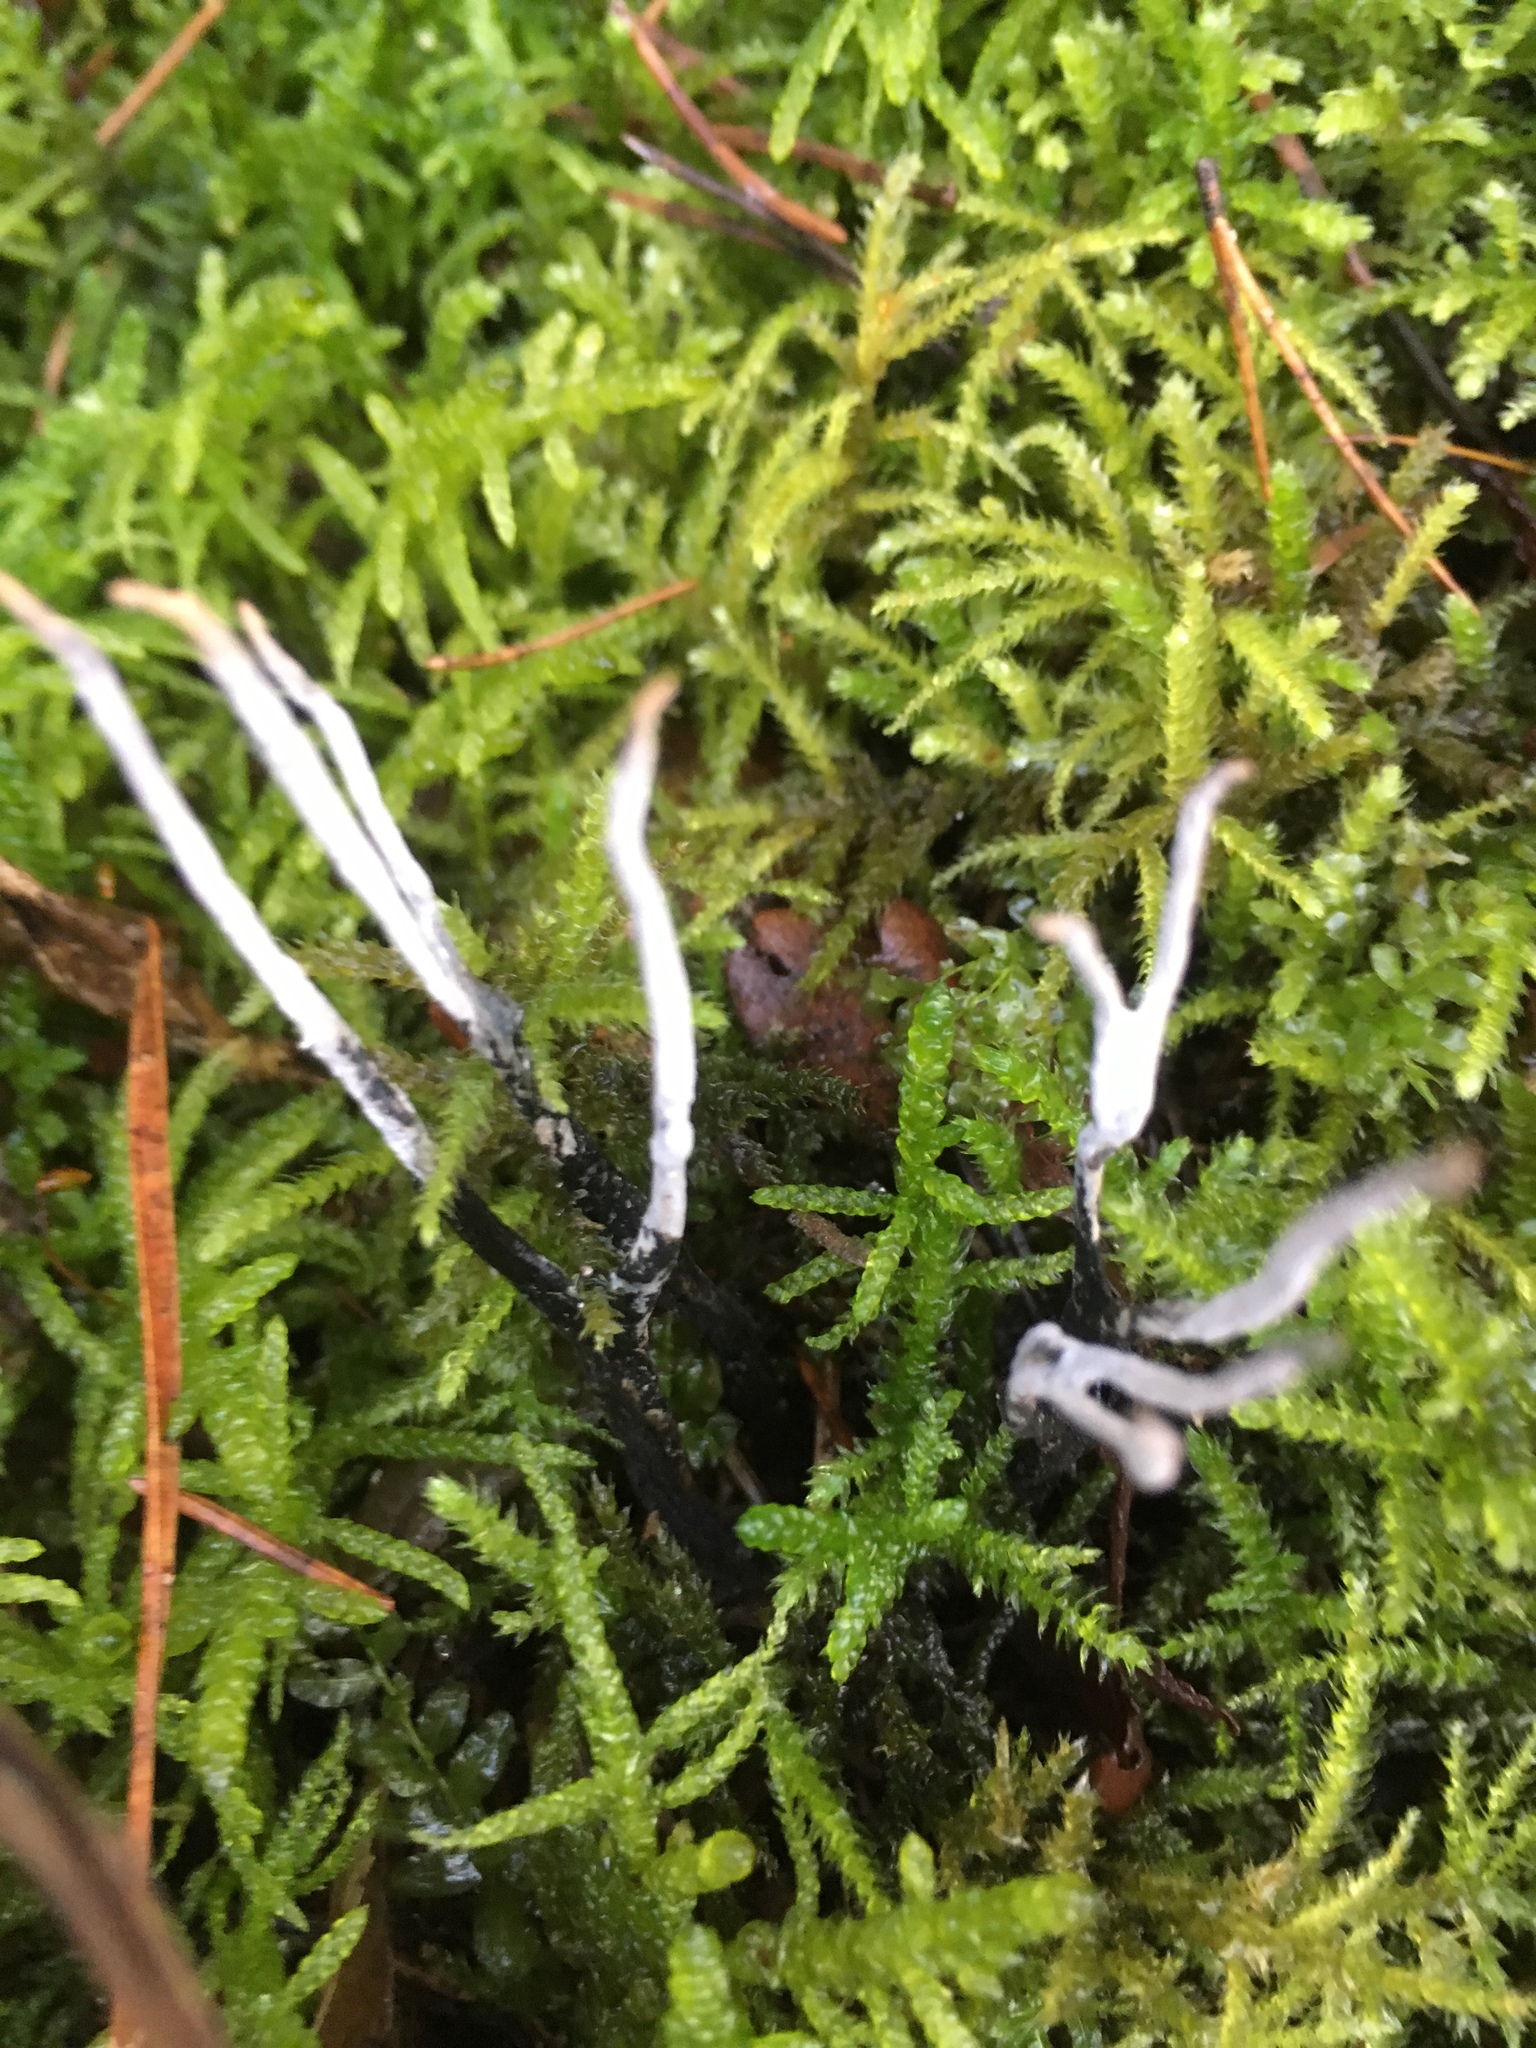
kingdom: Fungi
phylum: Ascomycota
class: Sordariomycetes
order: Xylariales
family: Xylariaceae
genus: Xylaria
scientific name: Xylaria hypoxylon
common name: Candle-snuff fungus
